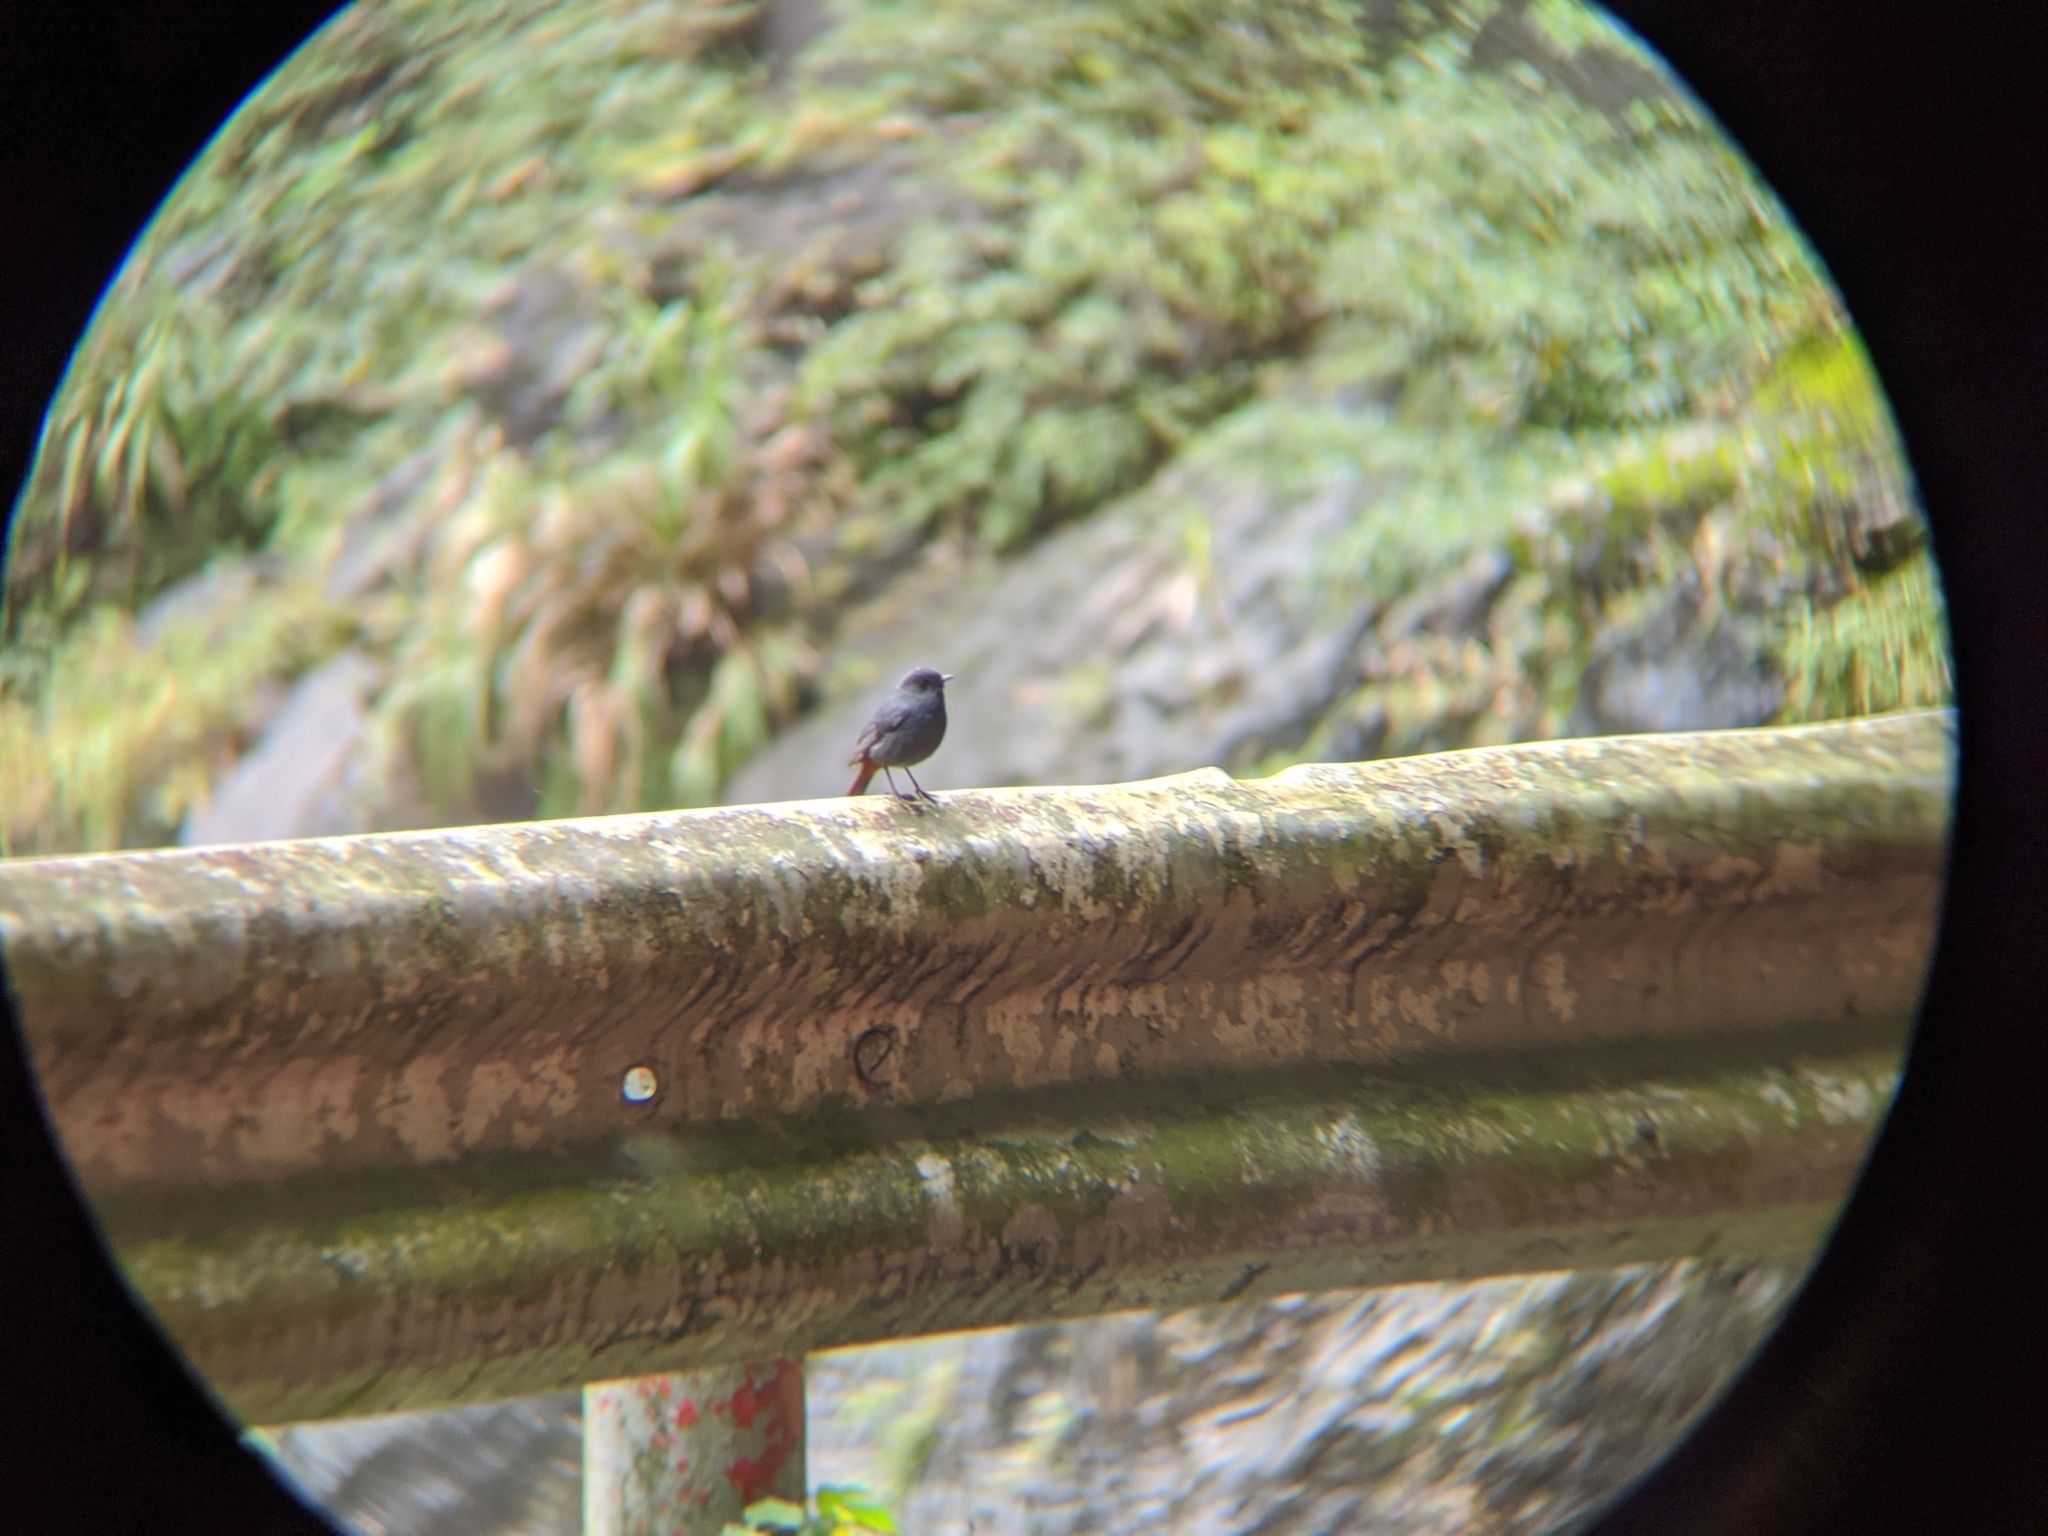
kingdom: Animalia
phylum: Chordata
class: Aves
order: Passeriformes
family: Muscicapidae
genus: Phoenicurus
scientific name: Phoenicurus fuliginosus
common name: Plumbeous water redstart
